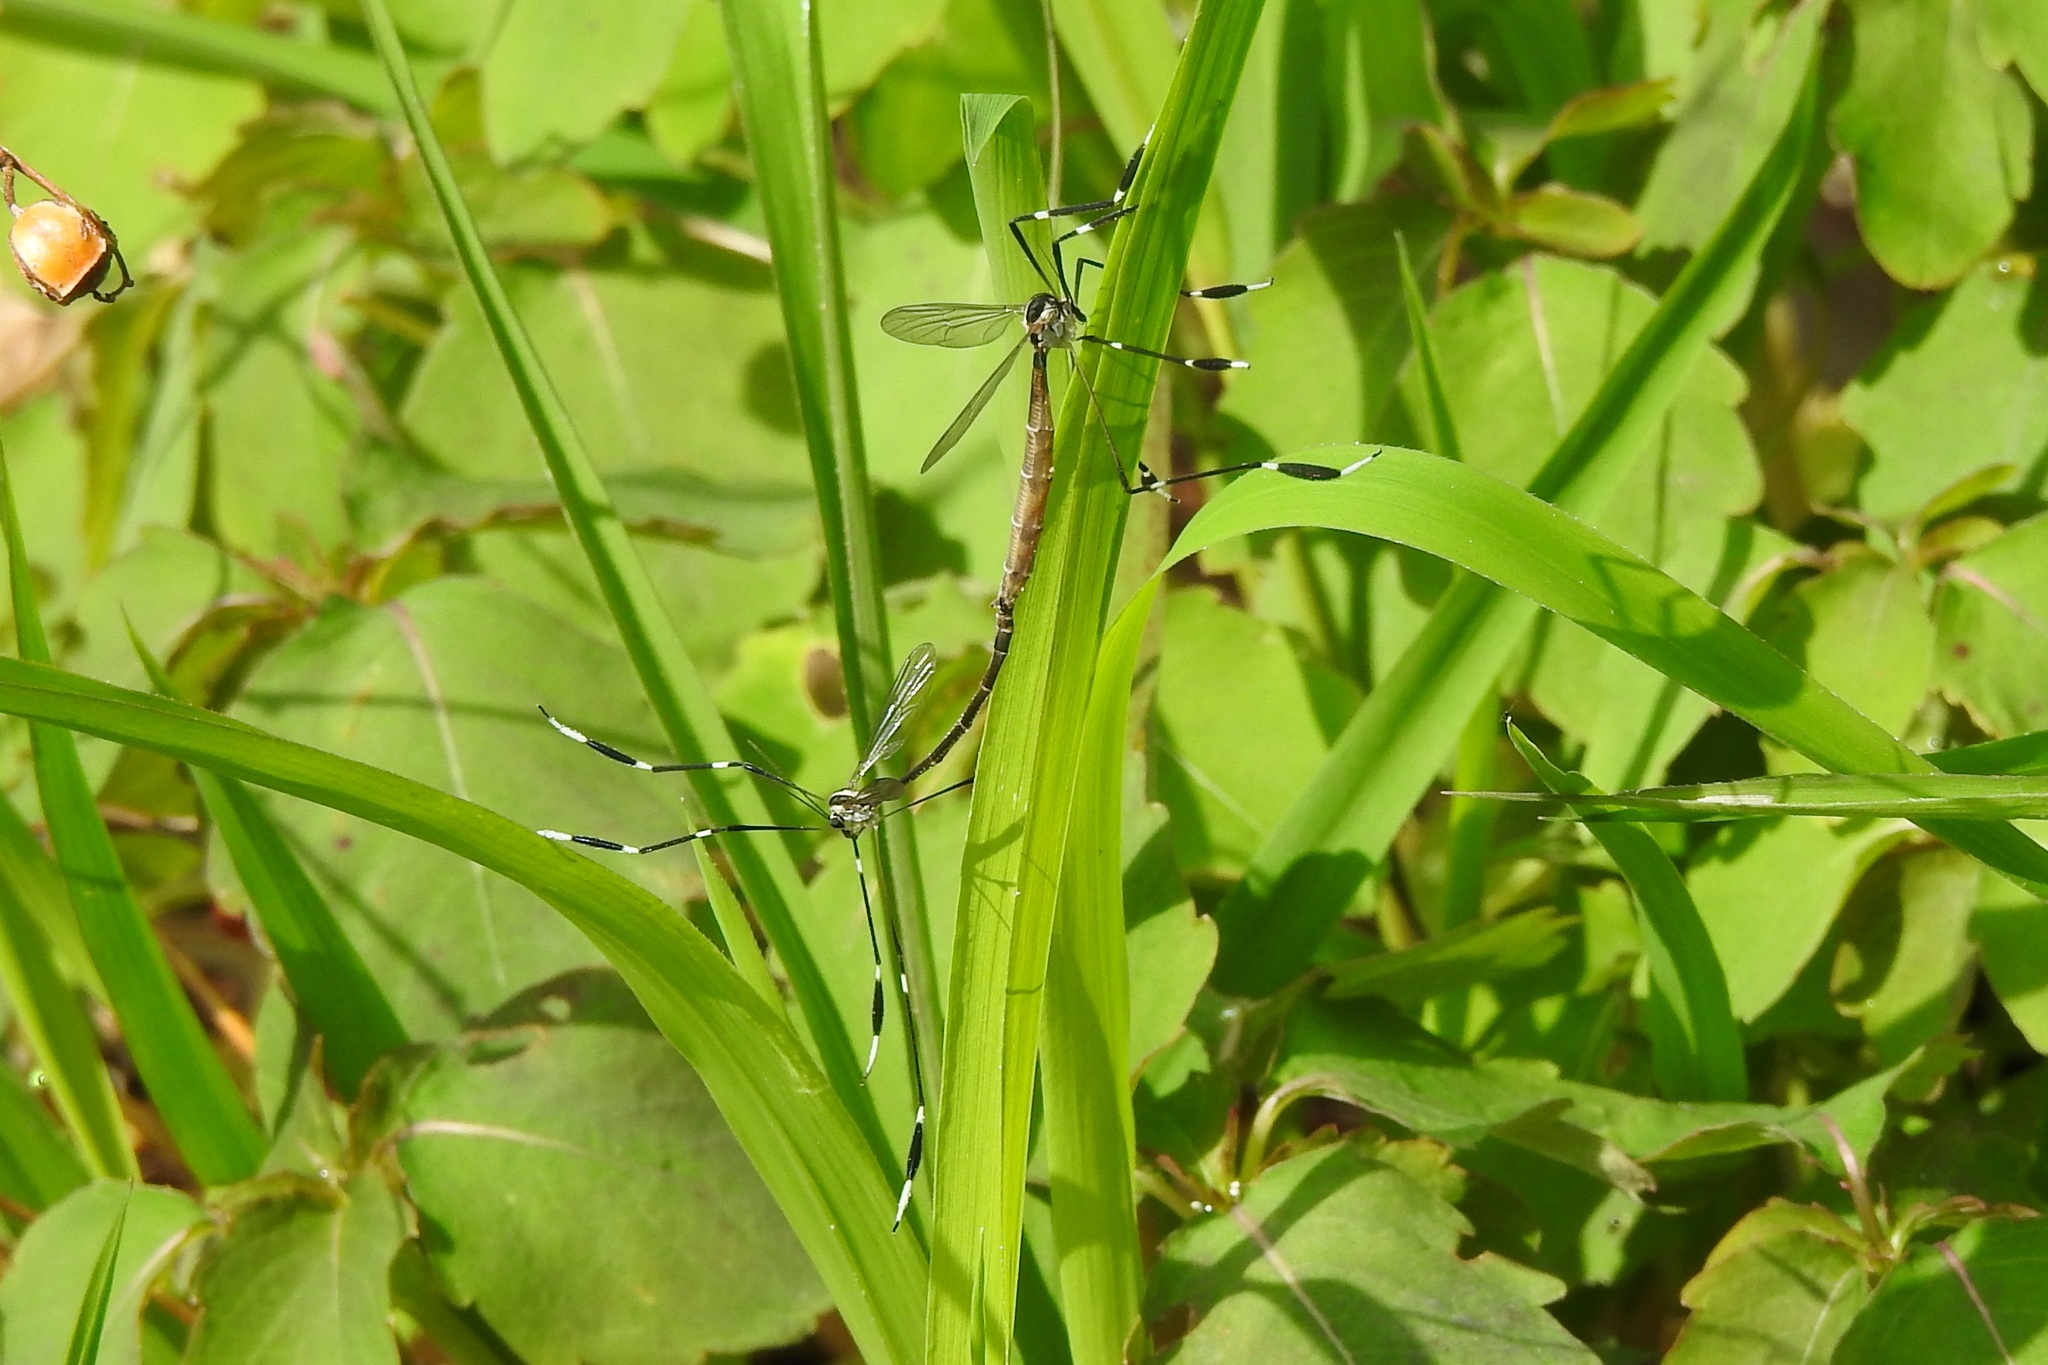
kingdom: Animalia
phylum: Arthropoda
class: Insecta
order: Diptera
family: Ptychopteridae
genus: Bittacomorpha
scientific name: Bittacomorpha clavipes
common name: Eastern phantom crane fly
